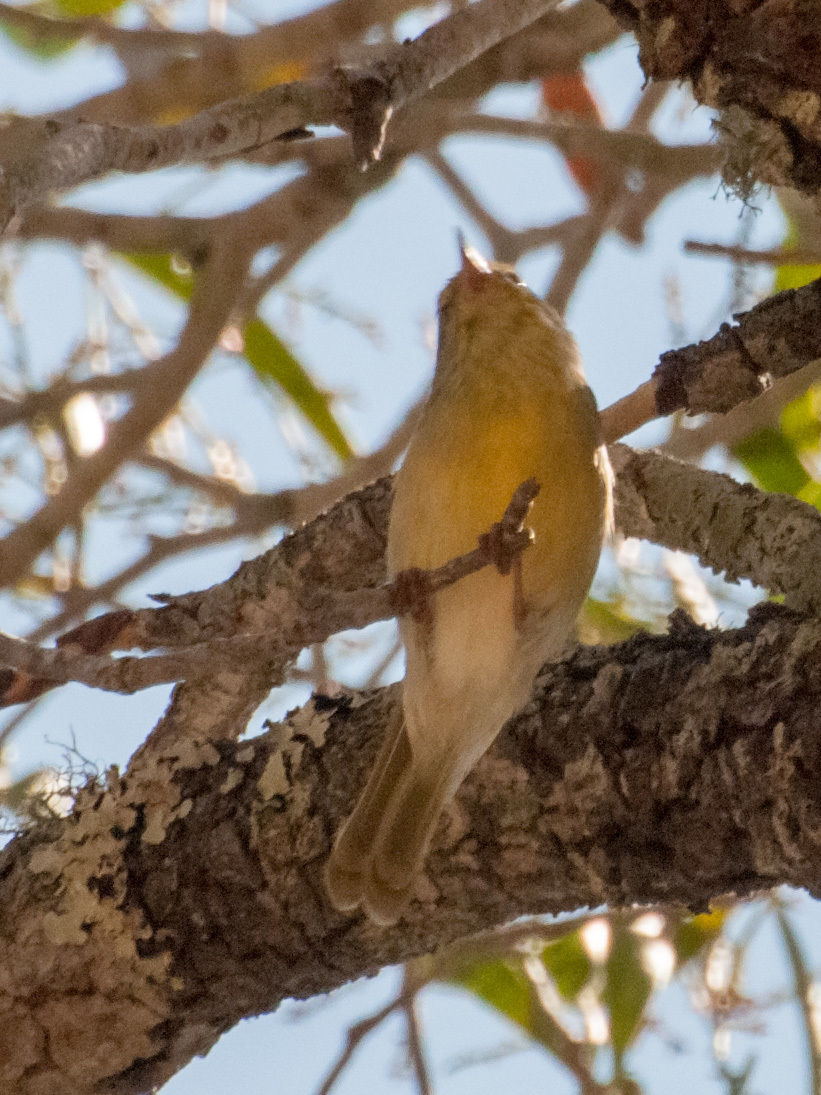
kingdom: Animalia
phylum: Chordata
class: Aves
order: Passeriformes
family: Cisticolidae
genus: Neomixis
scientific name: Neomixis tenella
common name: Common jery
